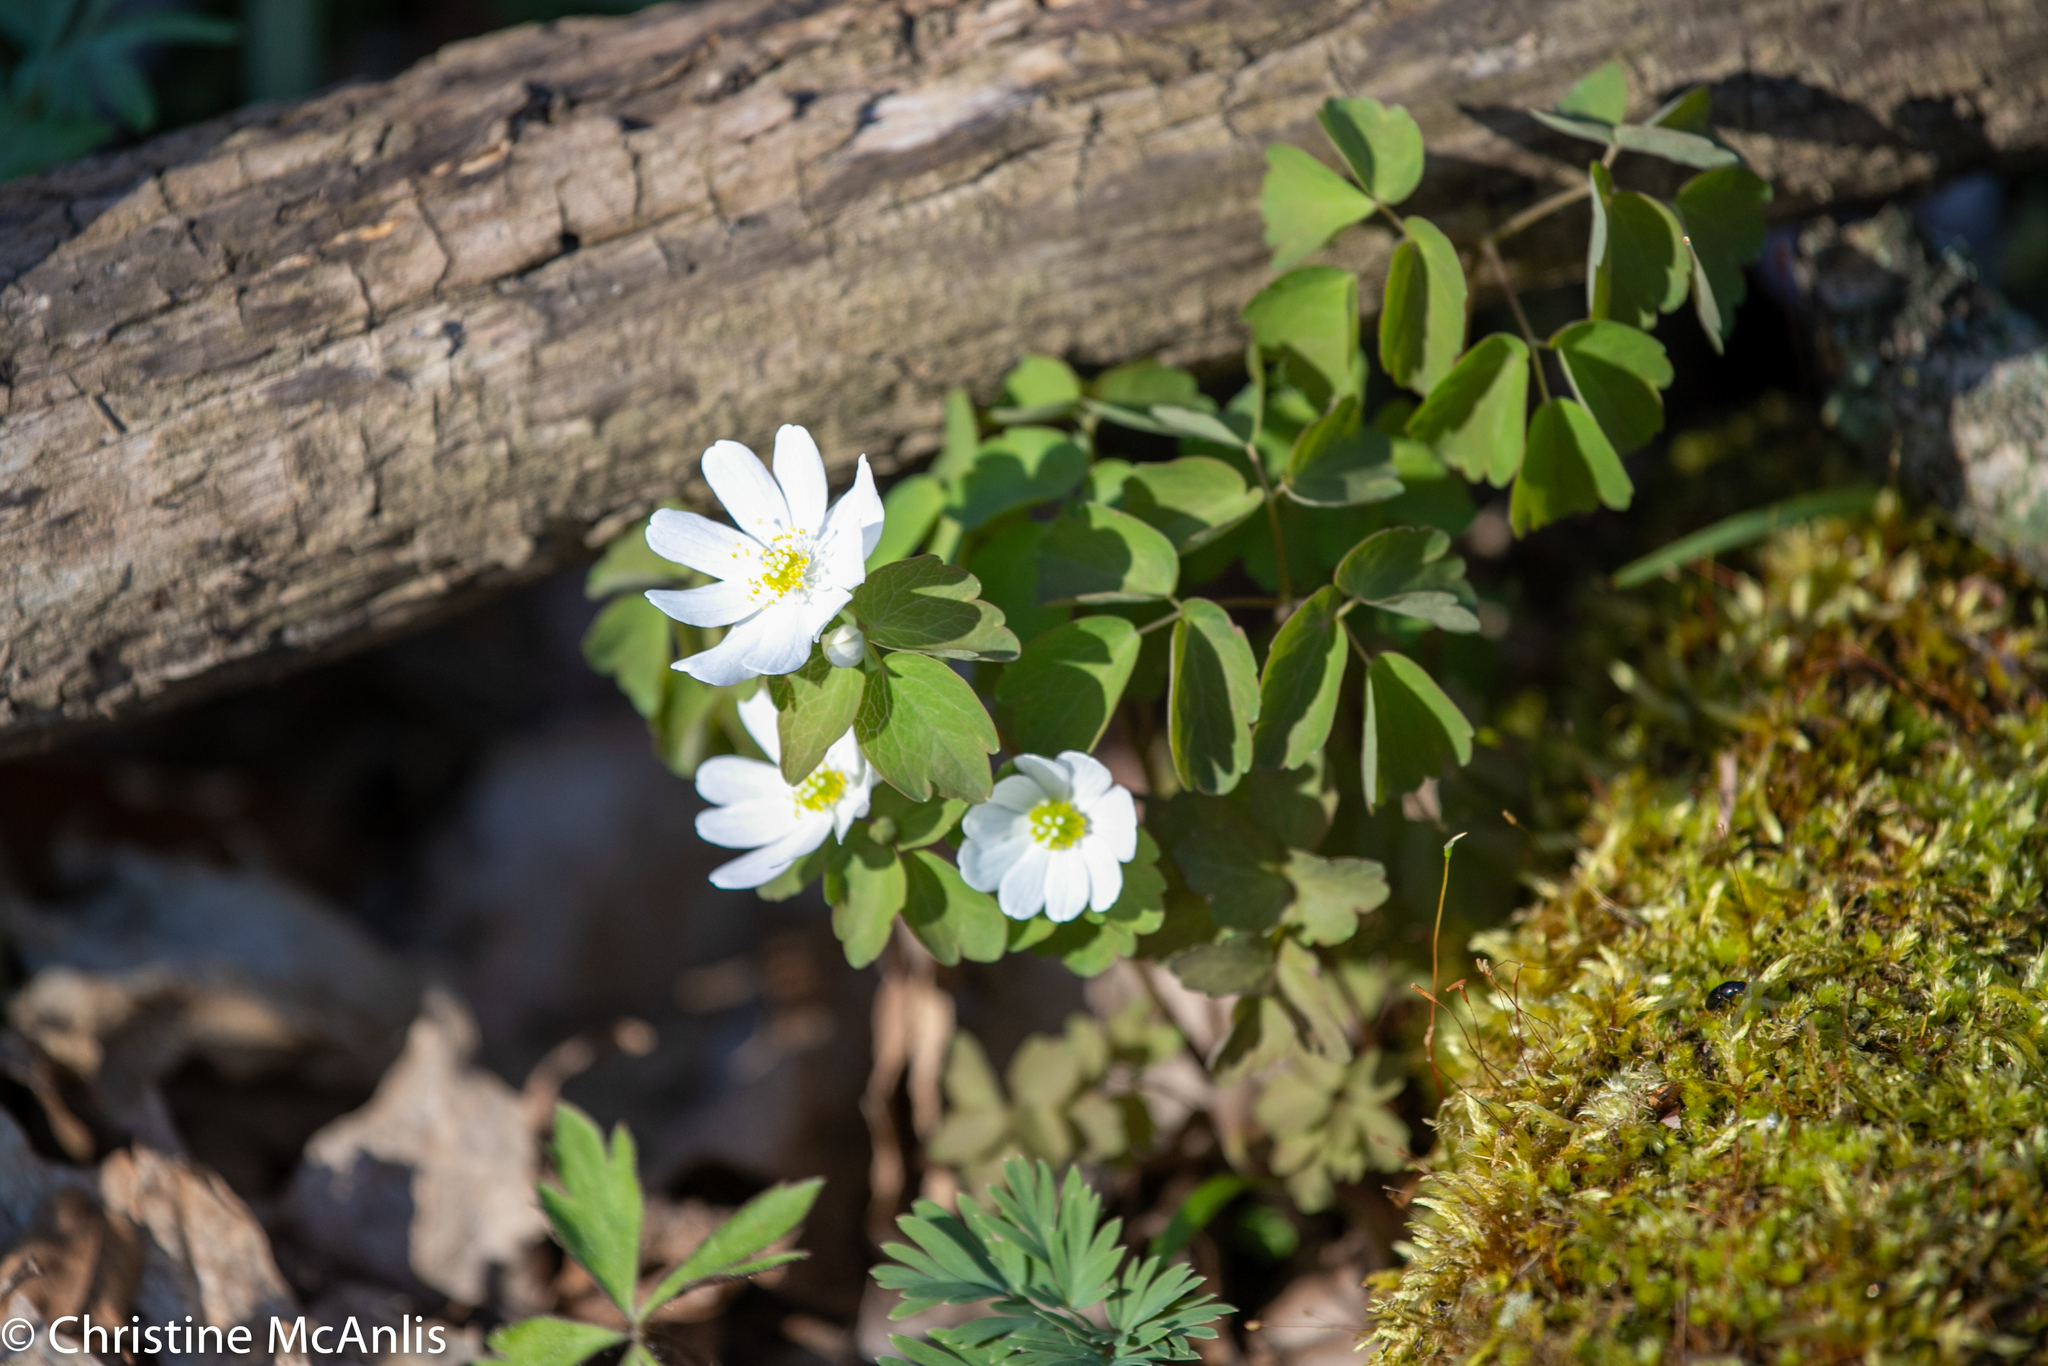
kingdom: Plantae
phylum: Tracheophyta
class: Magnoliopsida
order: Ranunculales
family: Ranunculaceae
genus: Thalictrum
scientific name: Thalictrum thalictroides
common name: Rue-anemone
